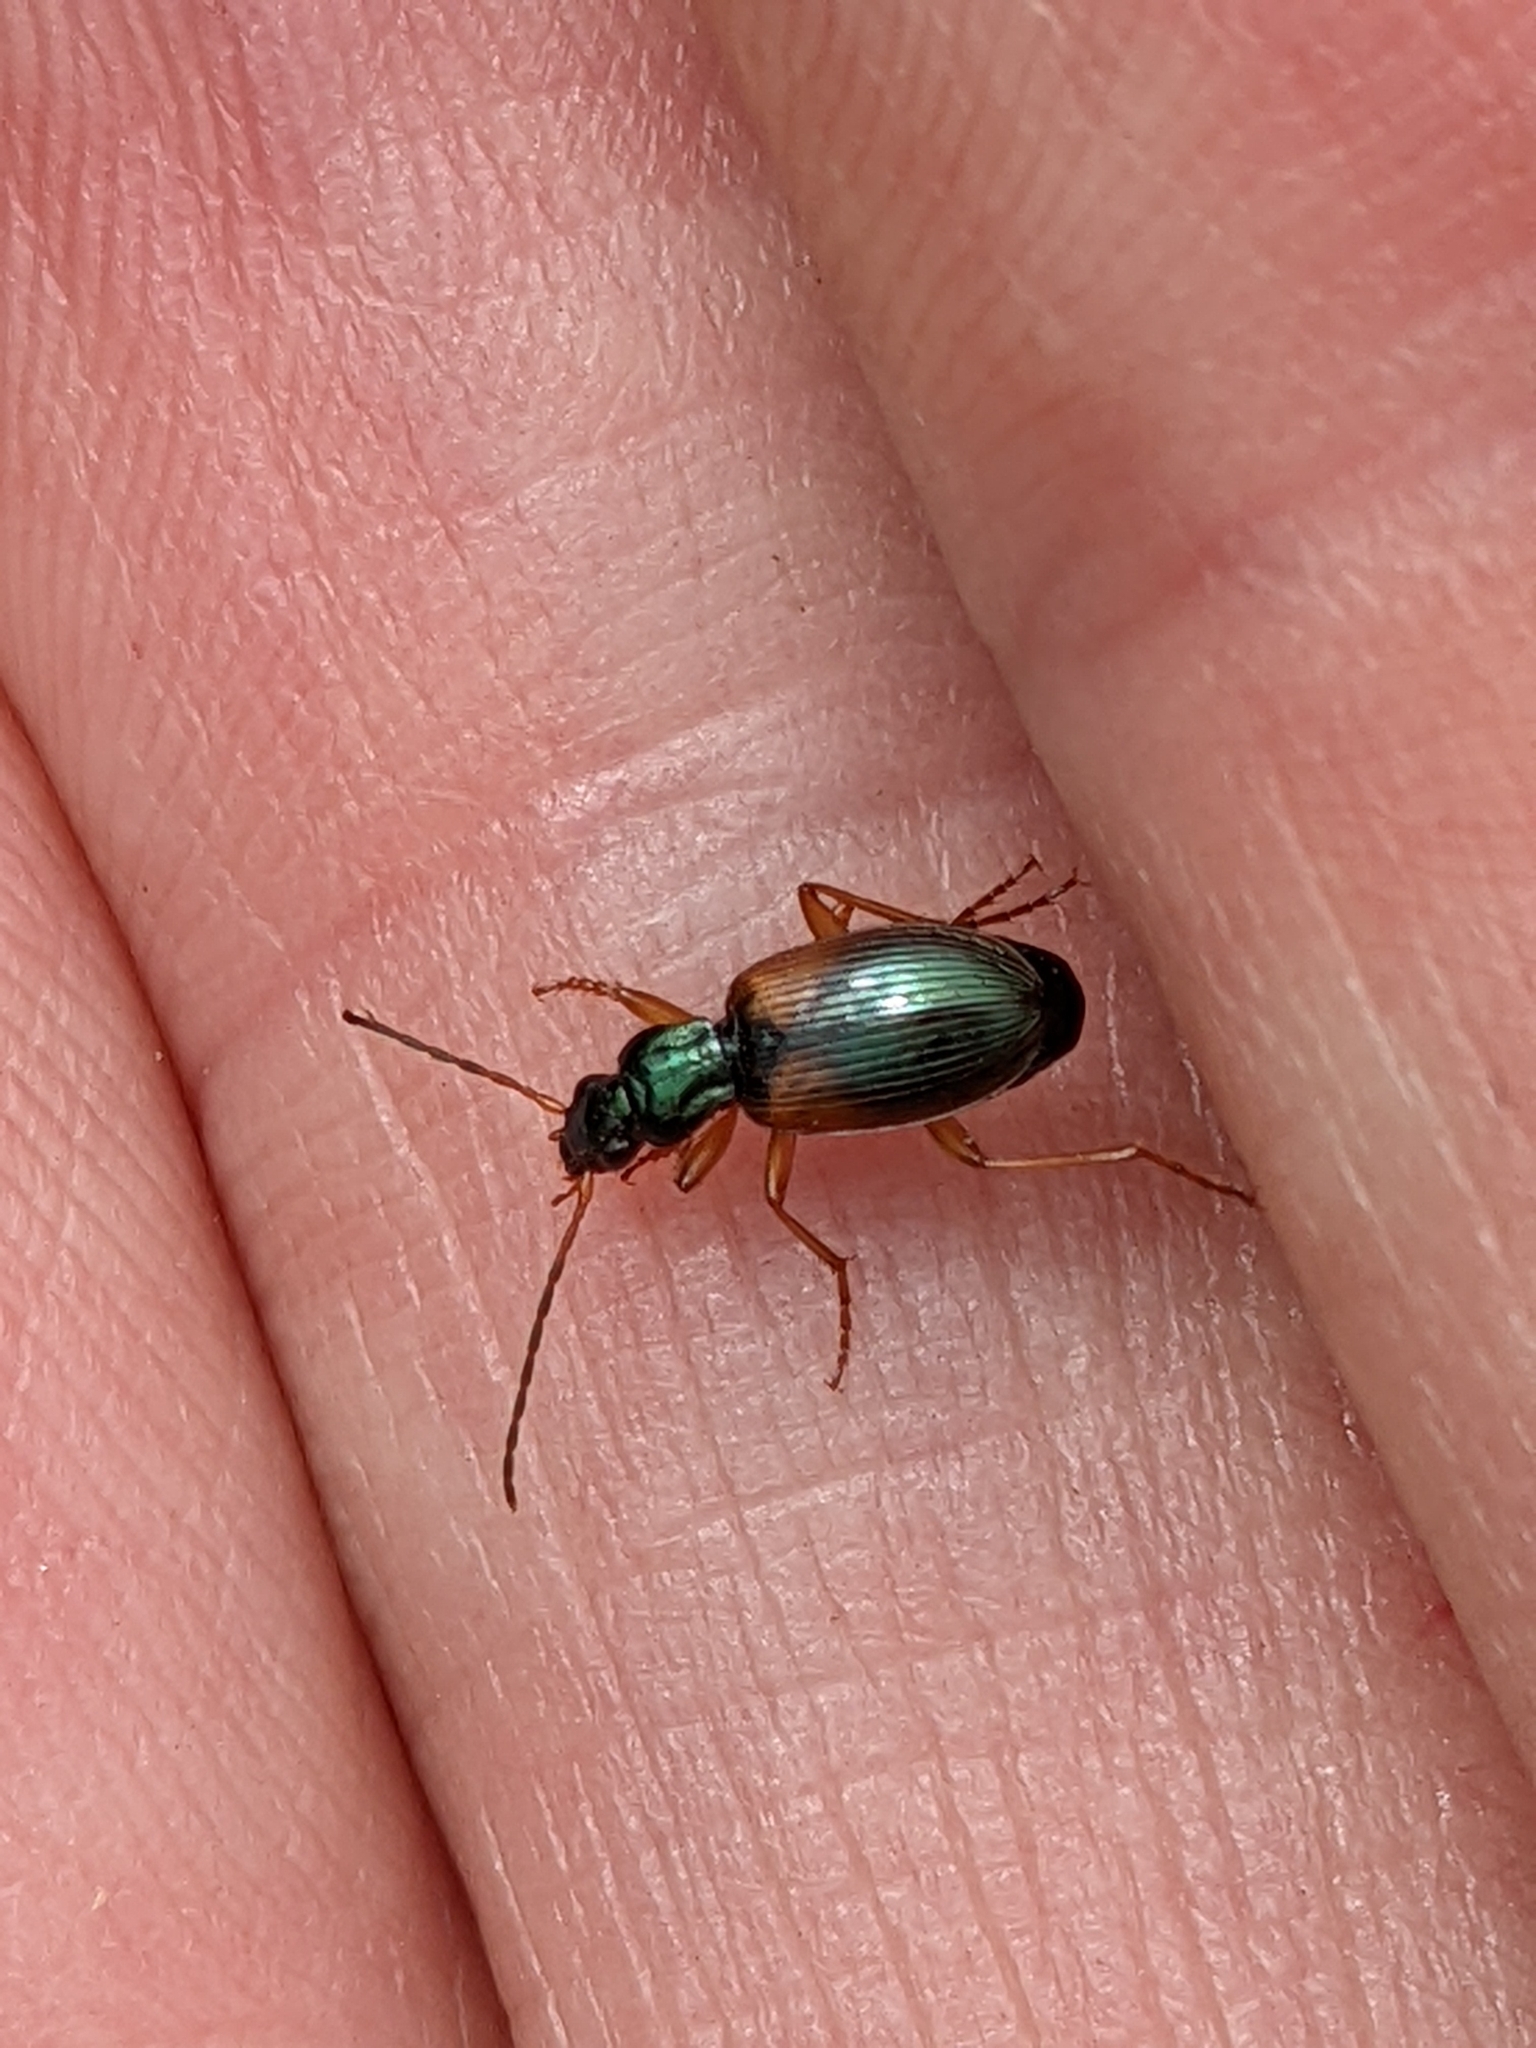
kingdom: Animalia
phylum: Arthropoda
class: Insecta
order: Coleoptera
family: Carabidae
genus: Anchomenus
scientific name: Anchomenus dorsalis
